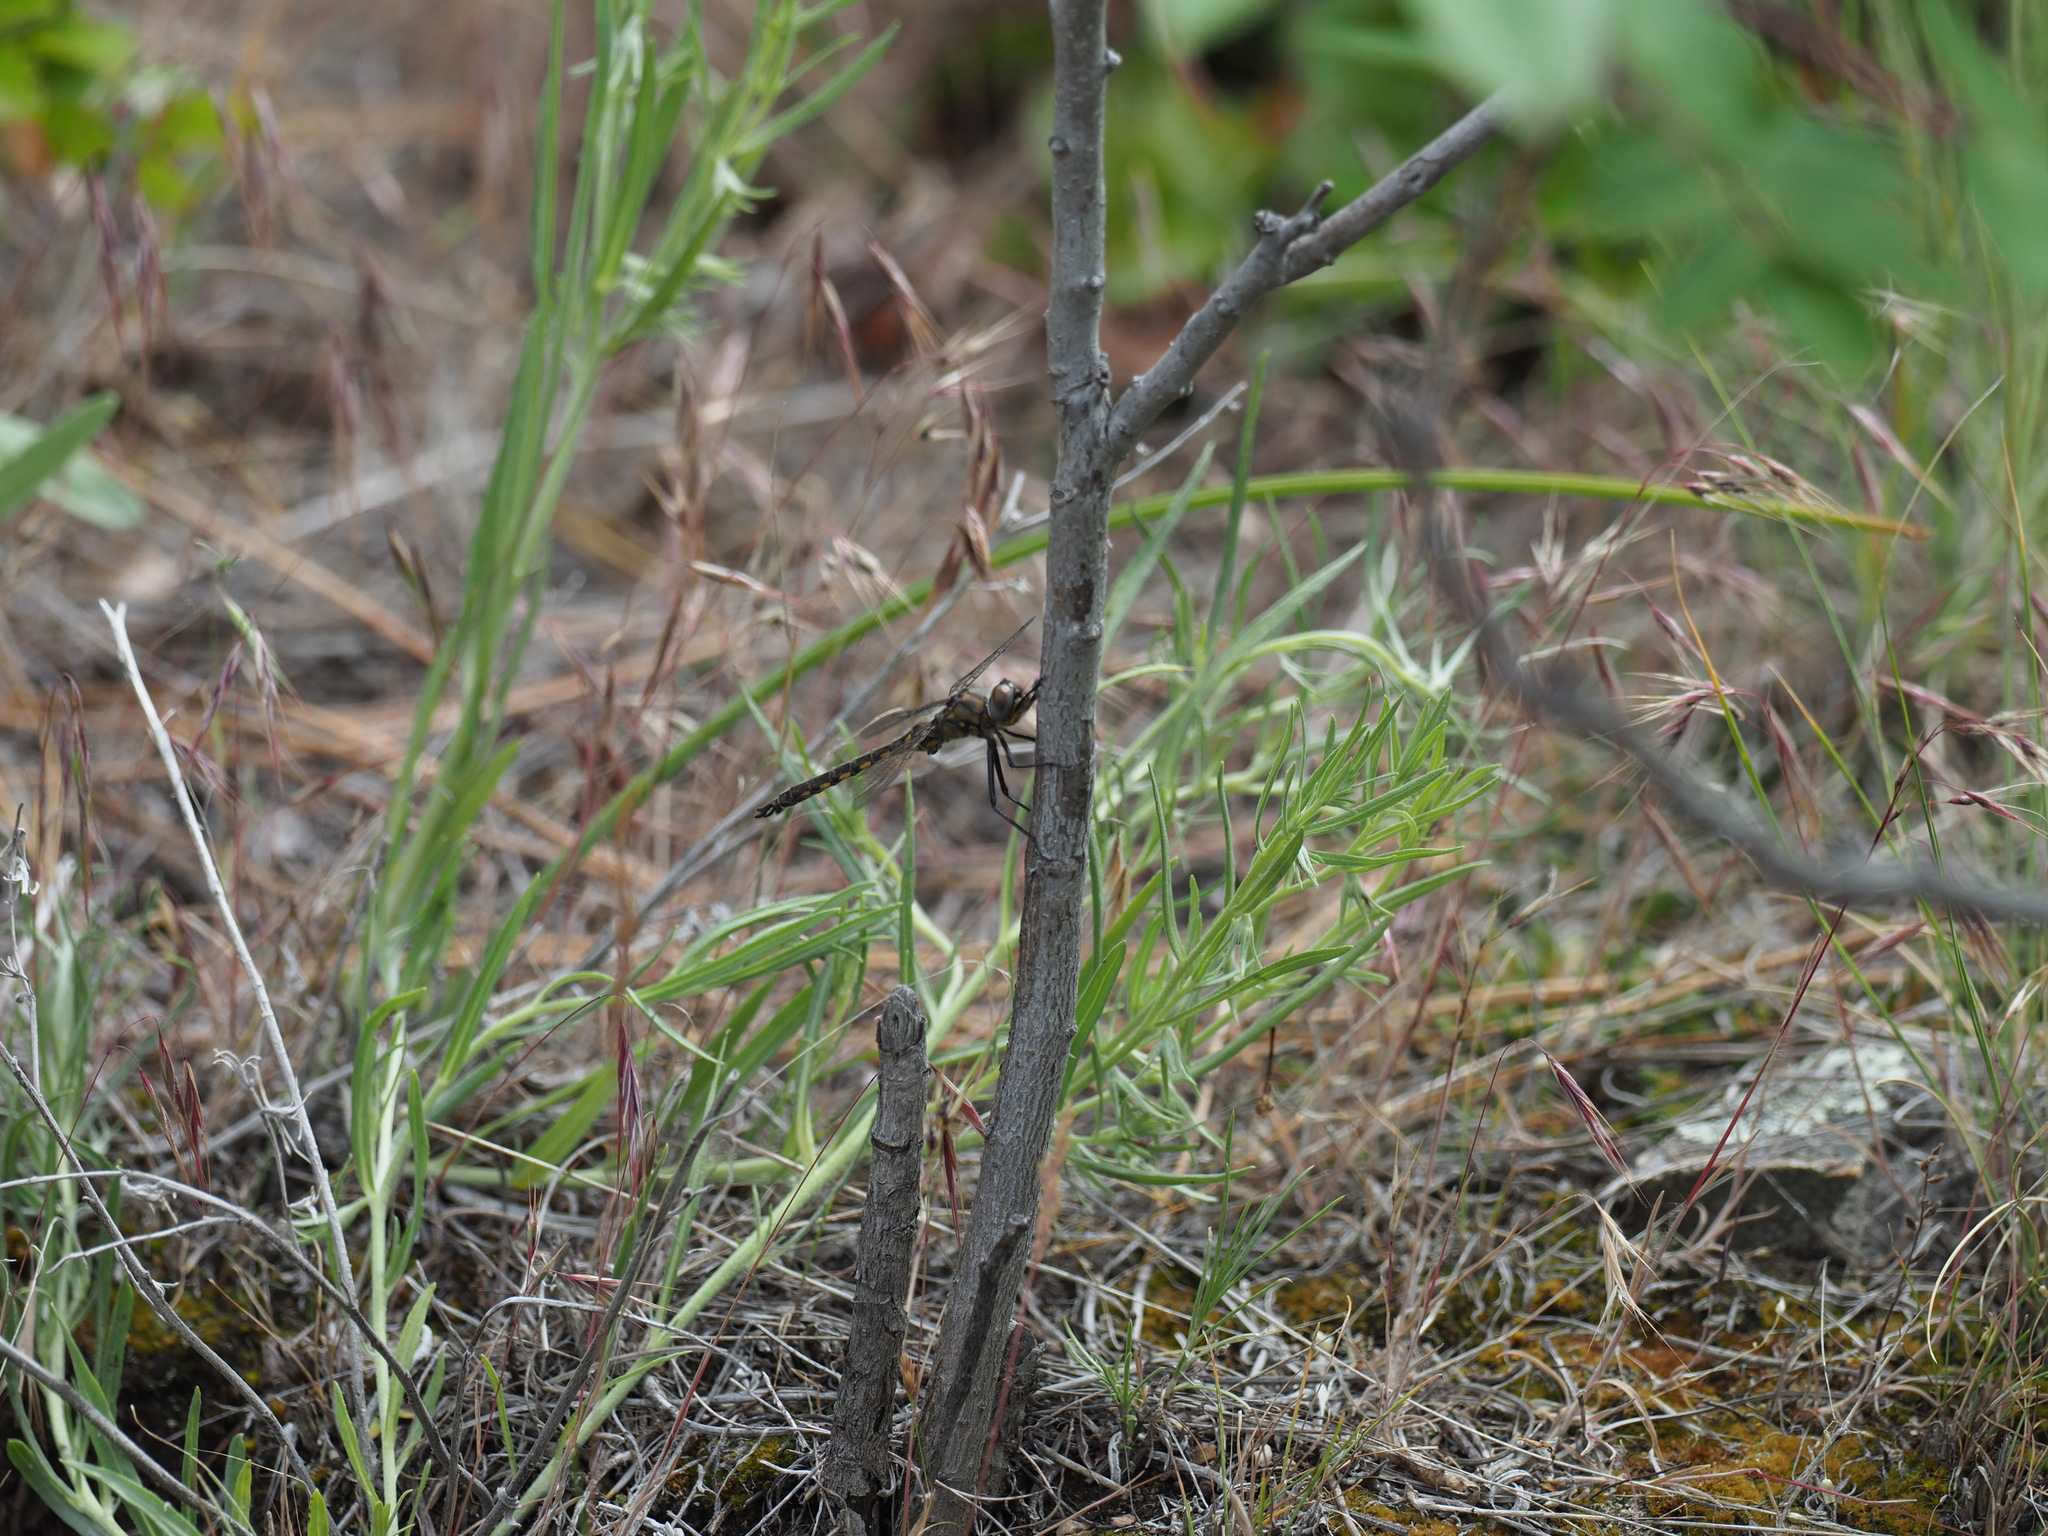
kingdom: Animalia
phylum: Arthropoda
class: Insecta
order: Odonata
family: Corduliidae
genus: Epitheca
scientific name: Epitheca spinigera
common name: Spiny baskettail
